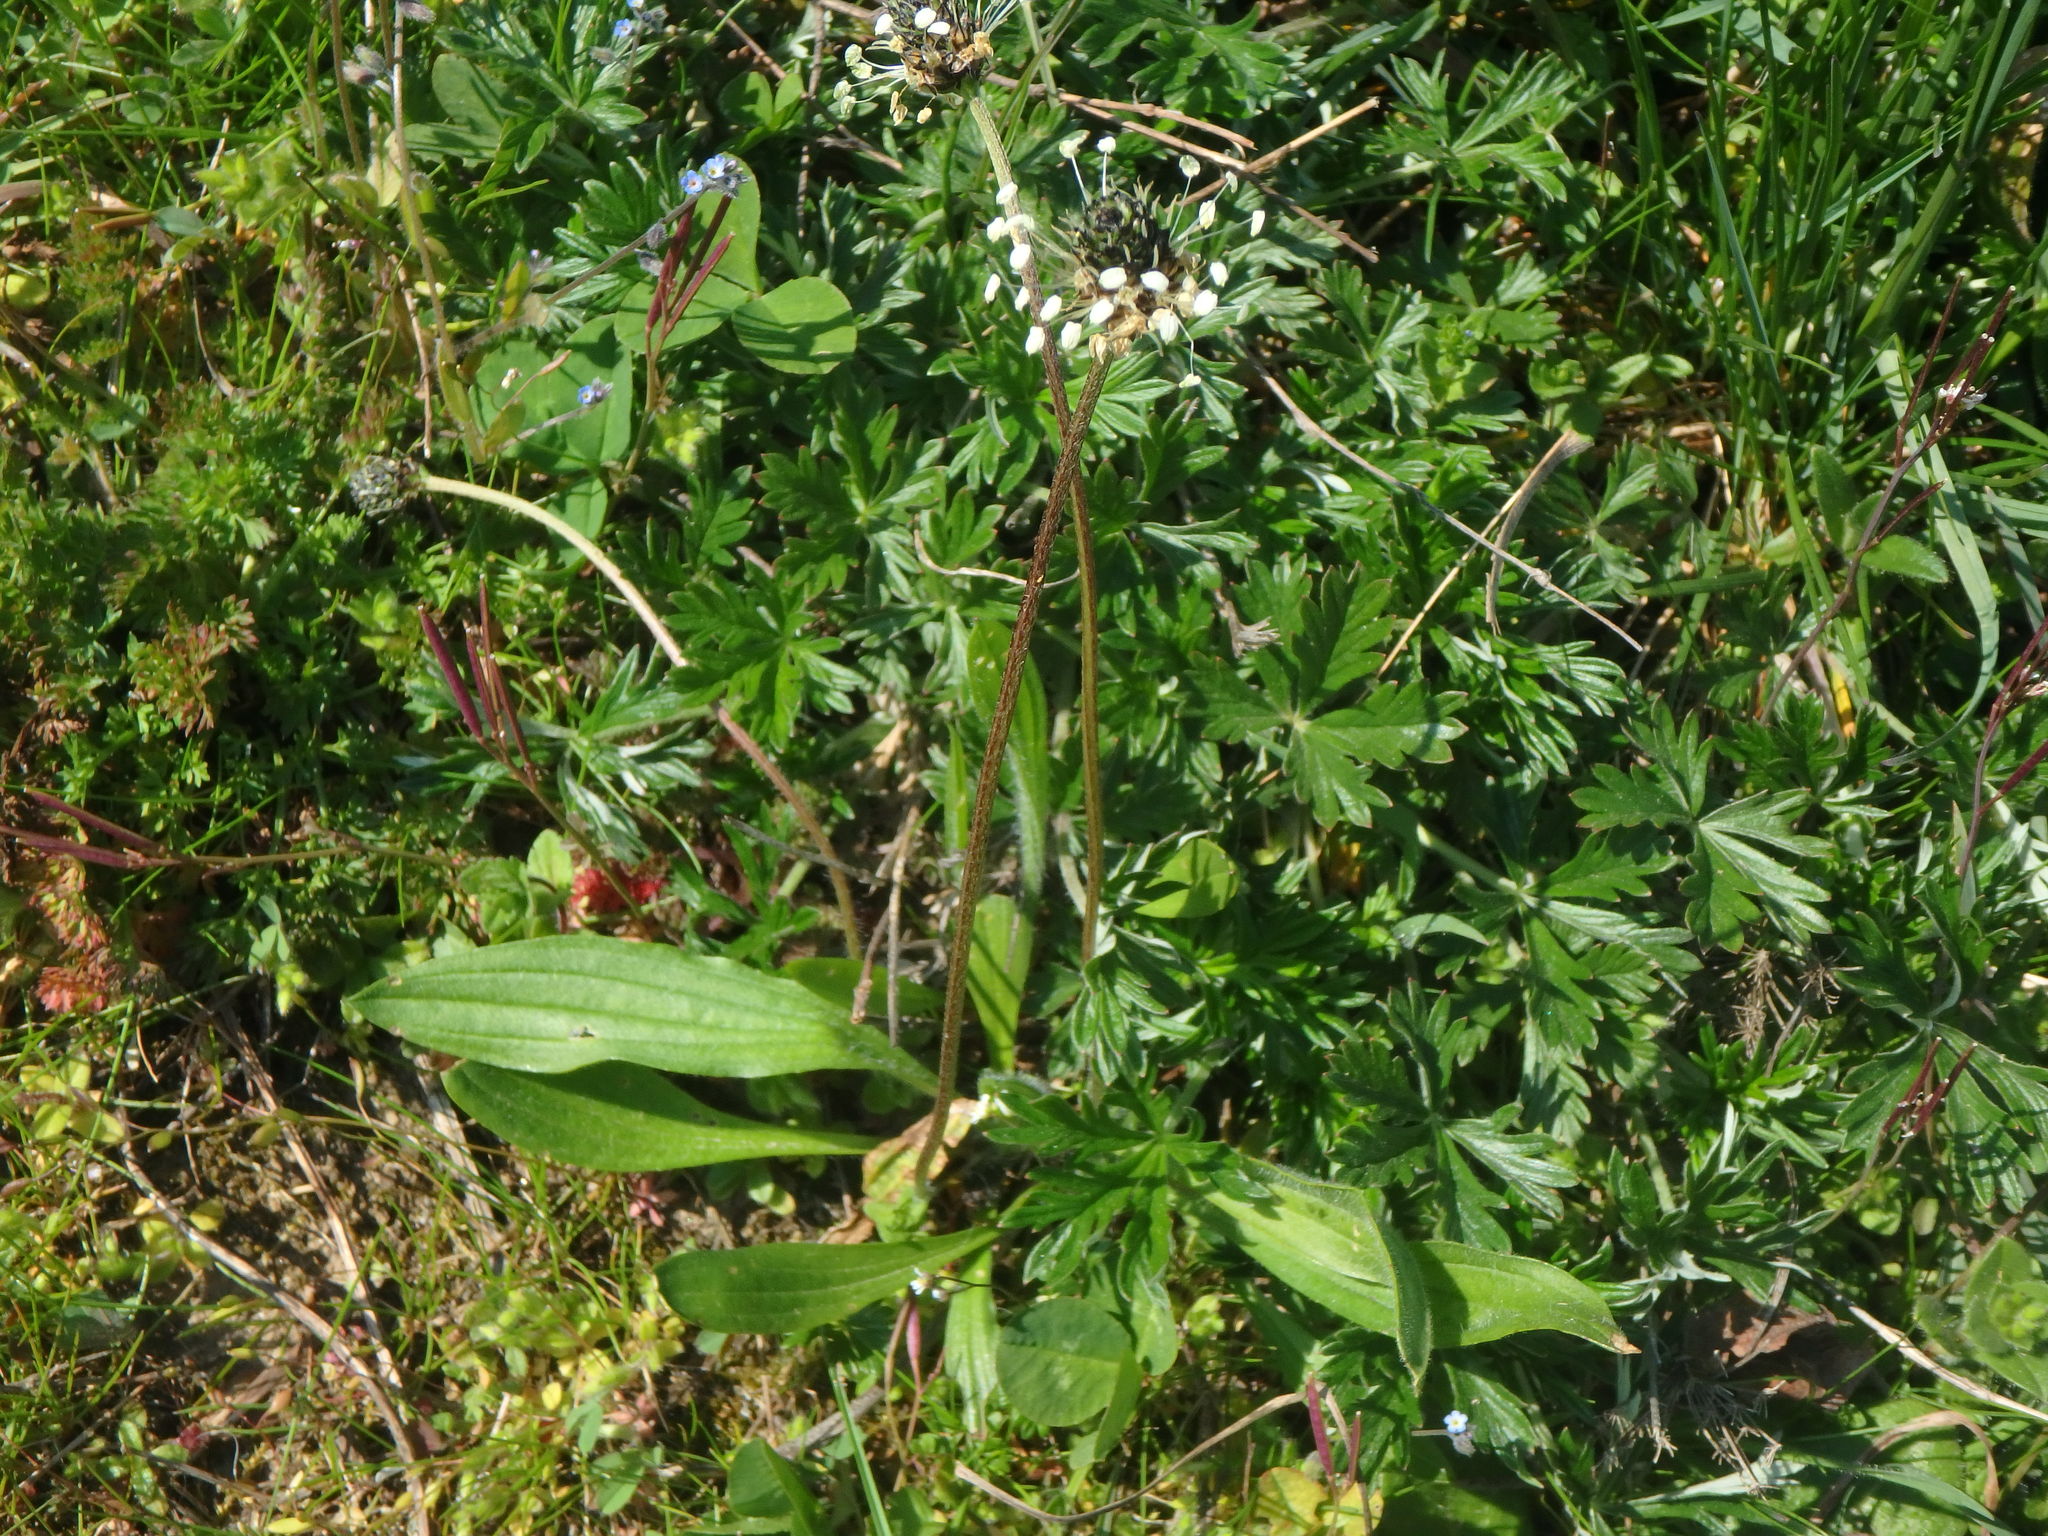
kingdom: Plantae
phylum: Tracheophyta
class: Magnoliopsida
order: Lamiales
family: Plantaginaceae
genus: Plantago
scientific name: Plantago lanceolata
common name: Ribwort plantain
